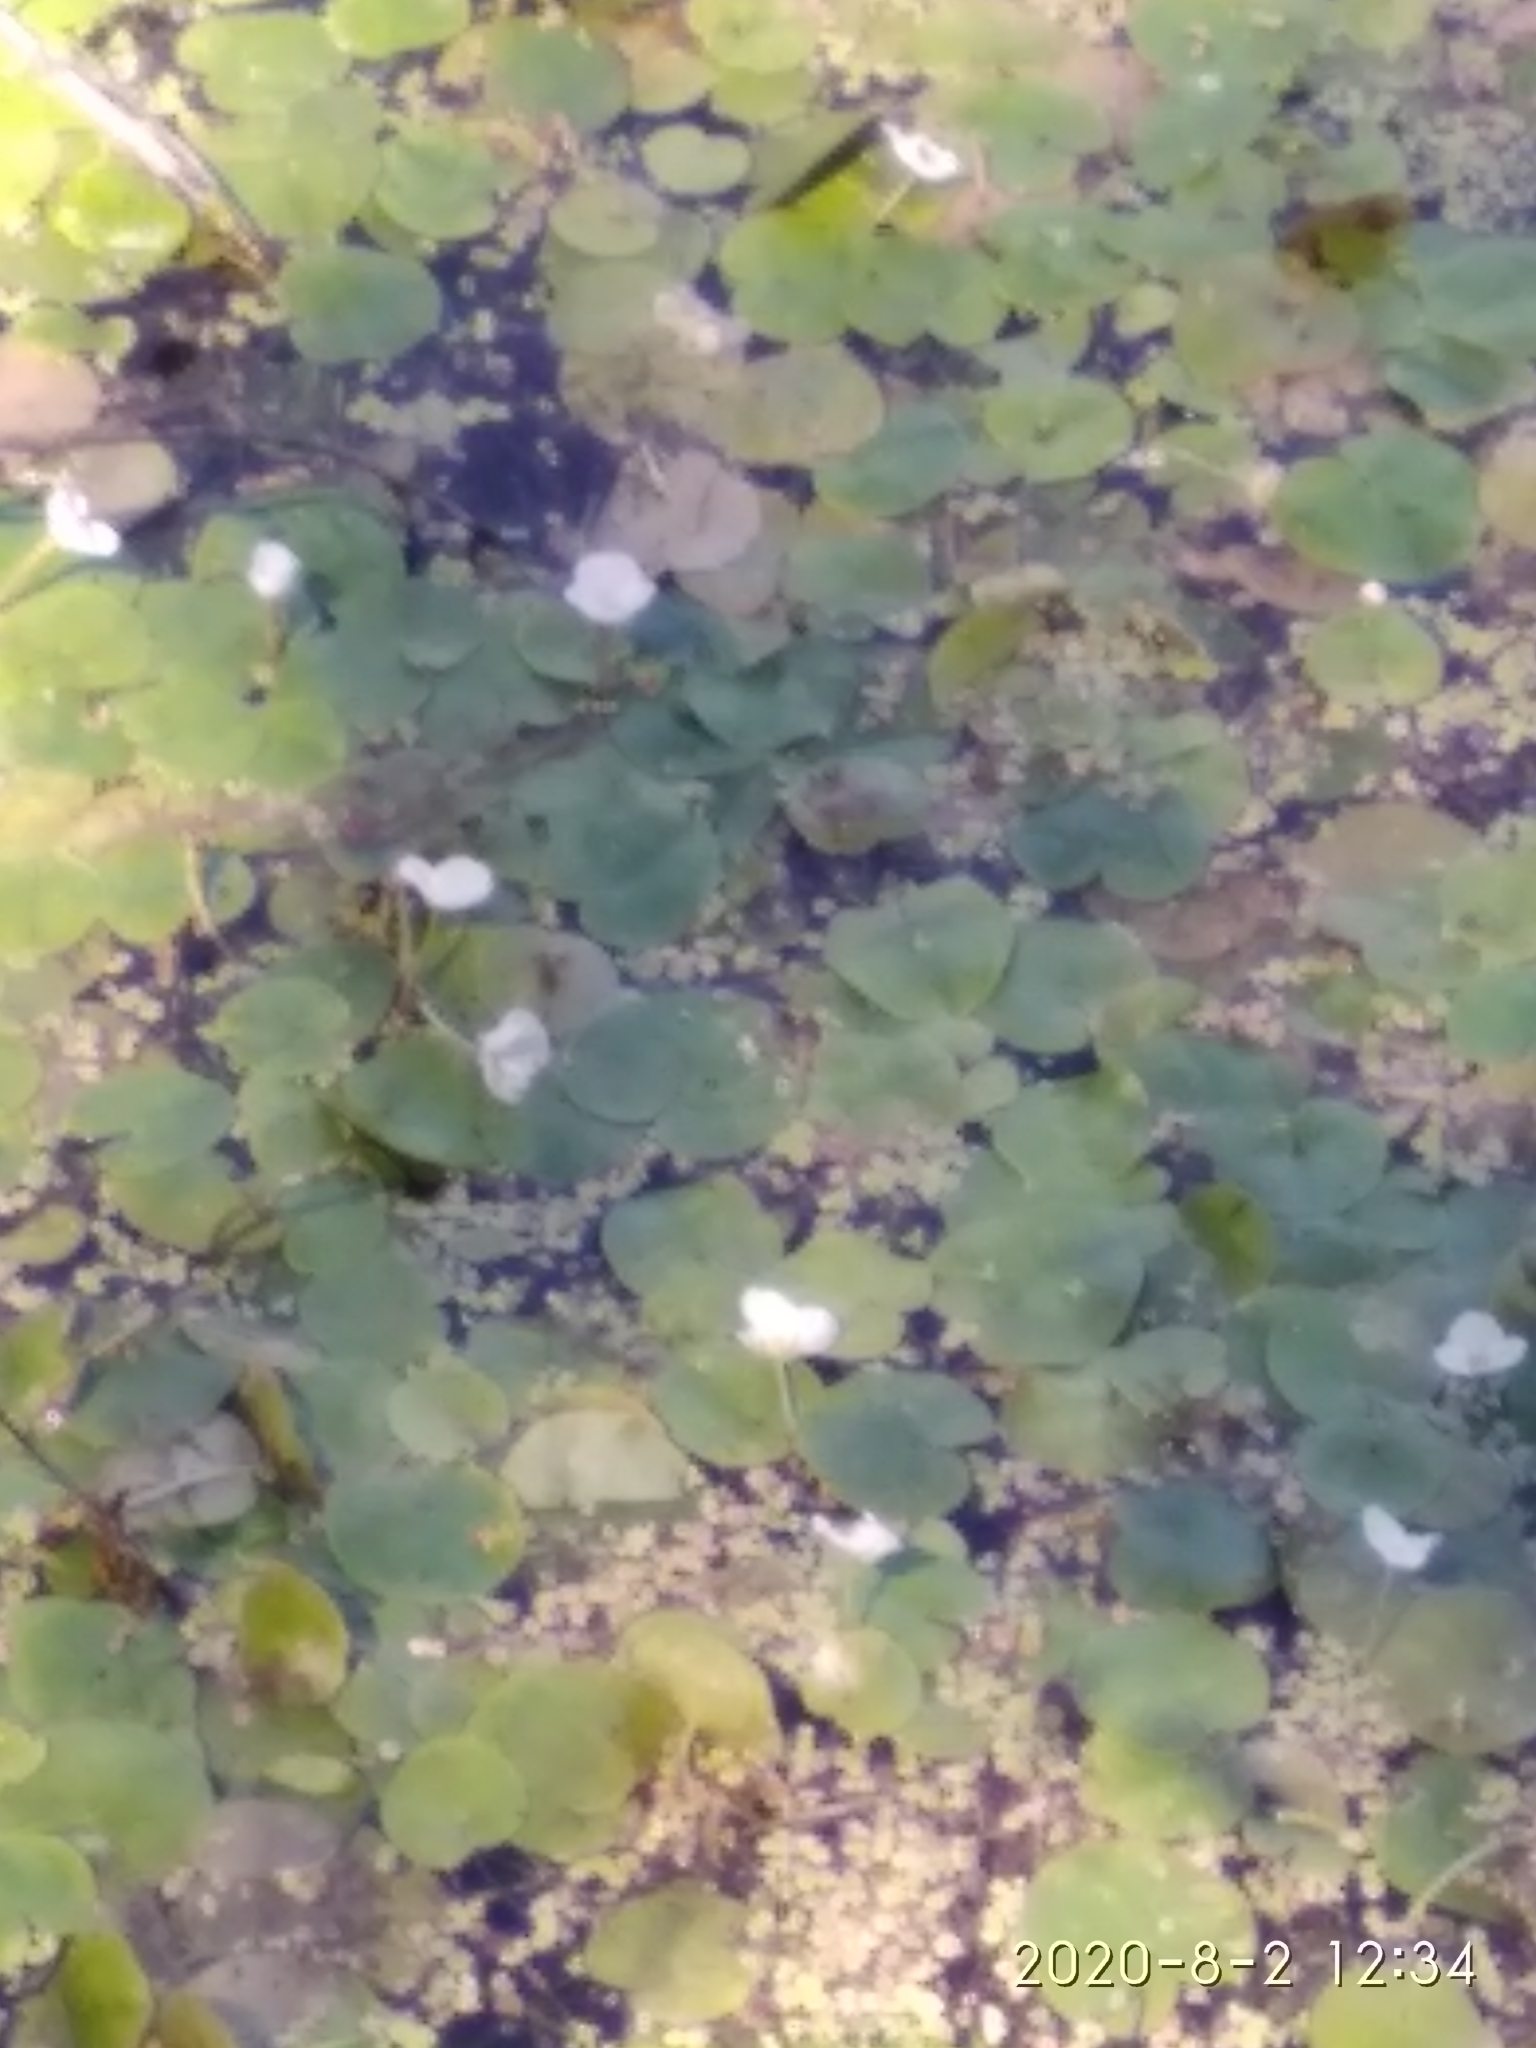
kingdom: Plantae
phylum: Tracheophyta
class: Liliopsida
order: Alismatales
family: Hydrocharitaceae
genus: Hydrocharis
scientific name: Hydrocharis morsus-ranae
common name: Frogbit
